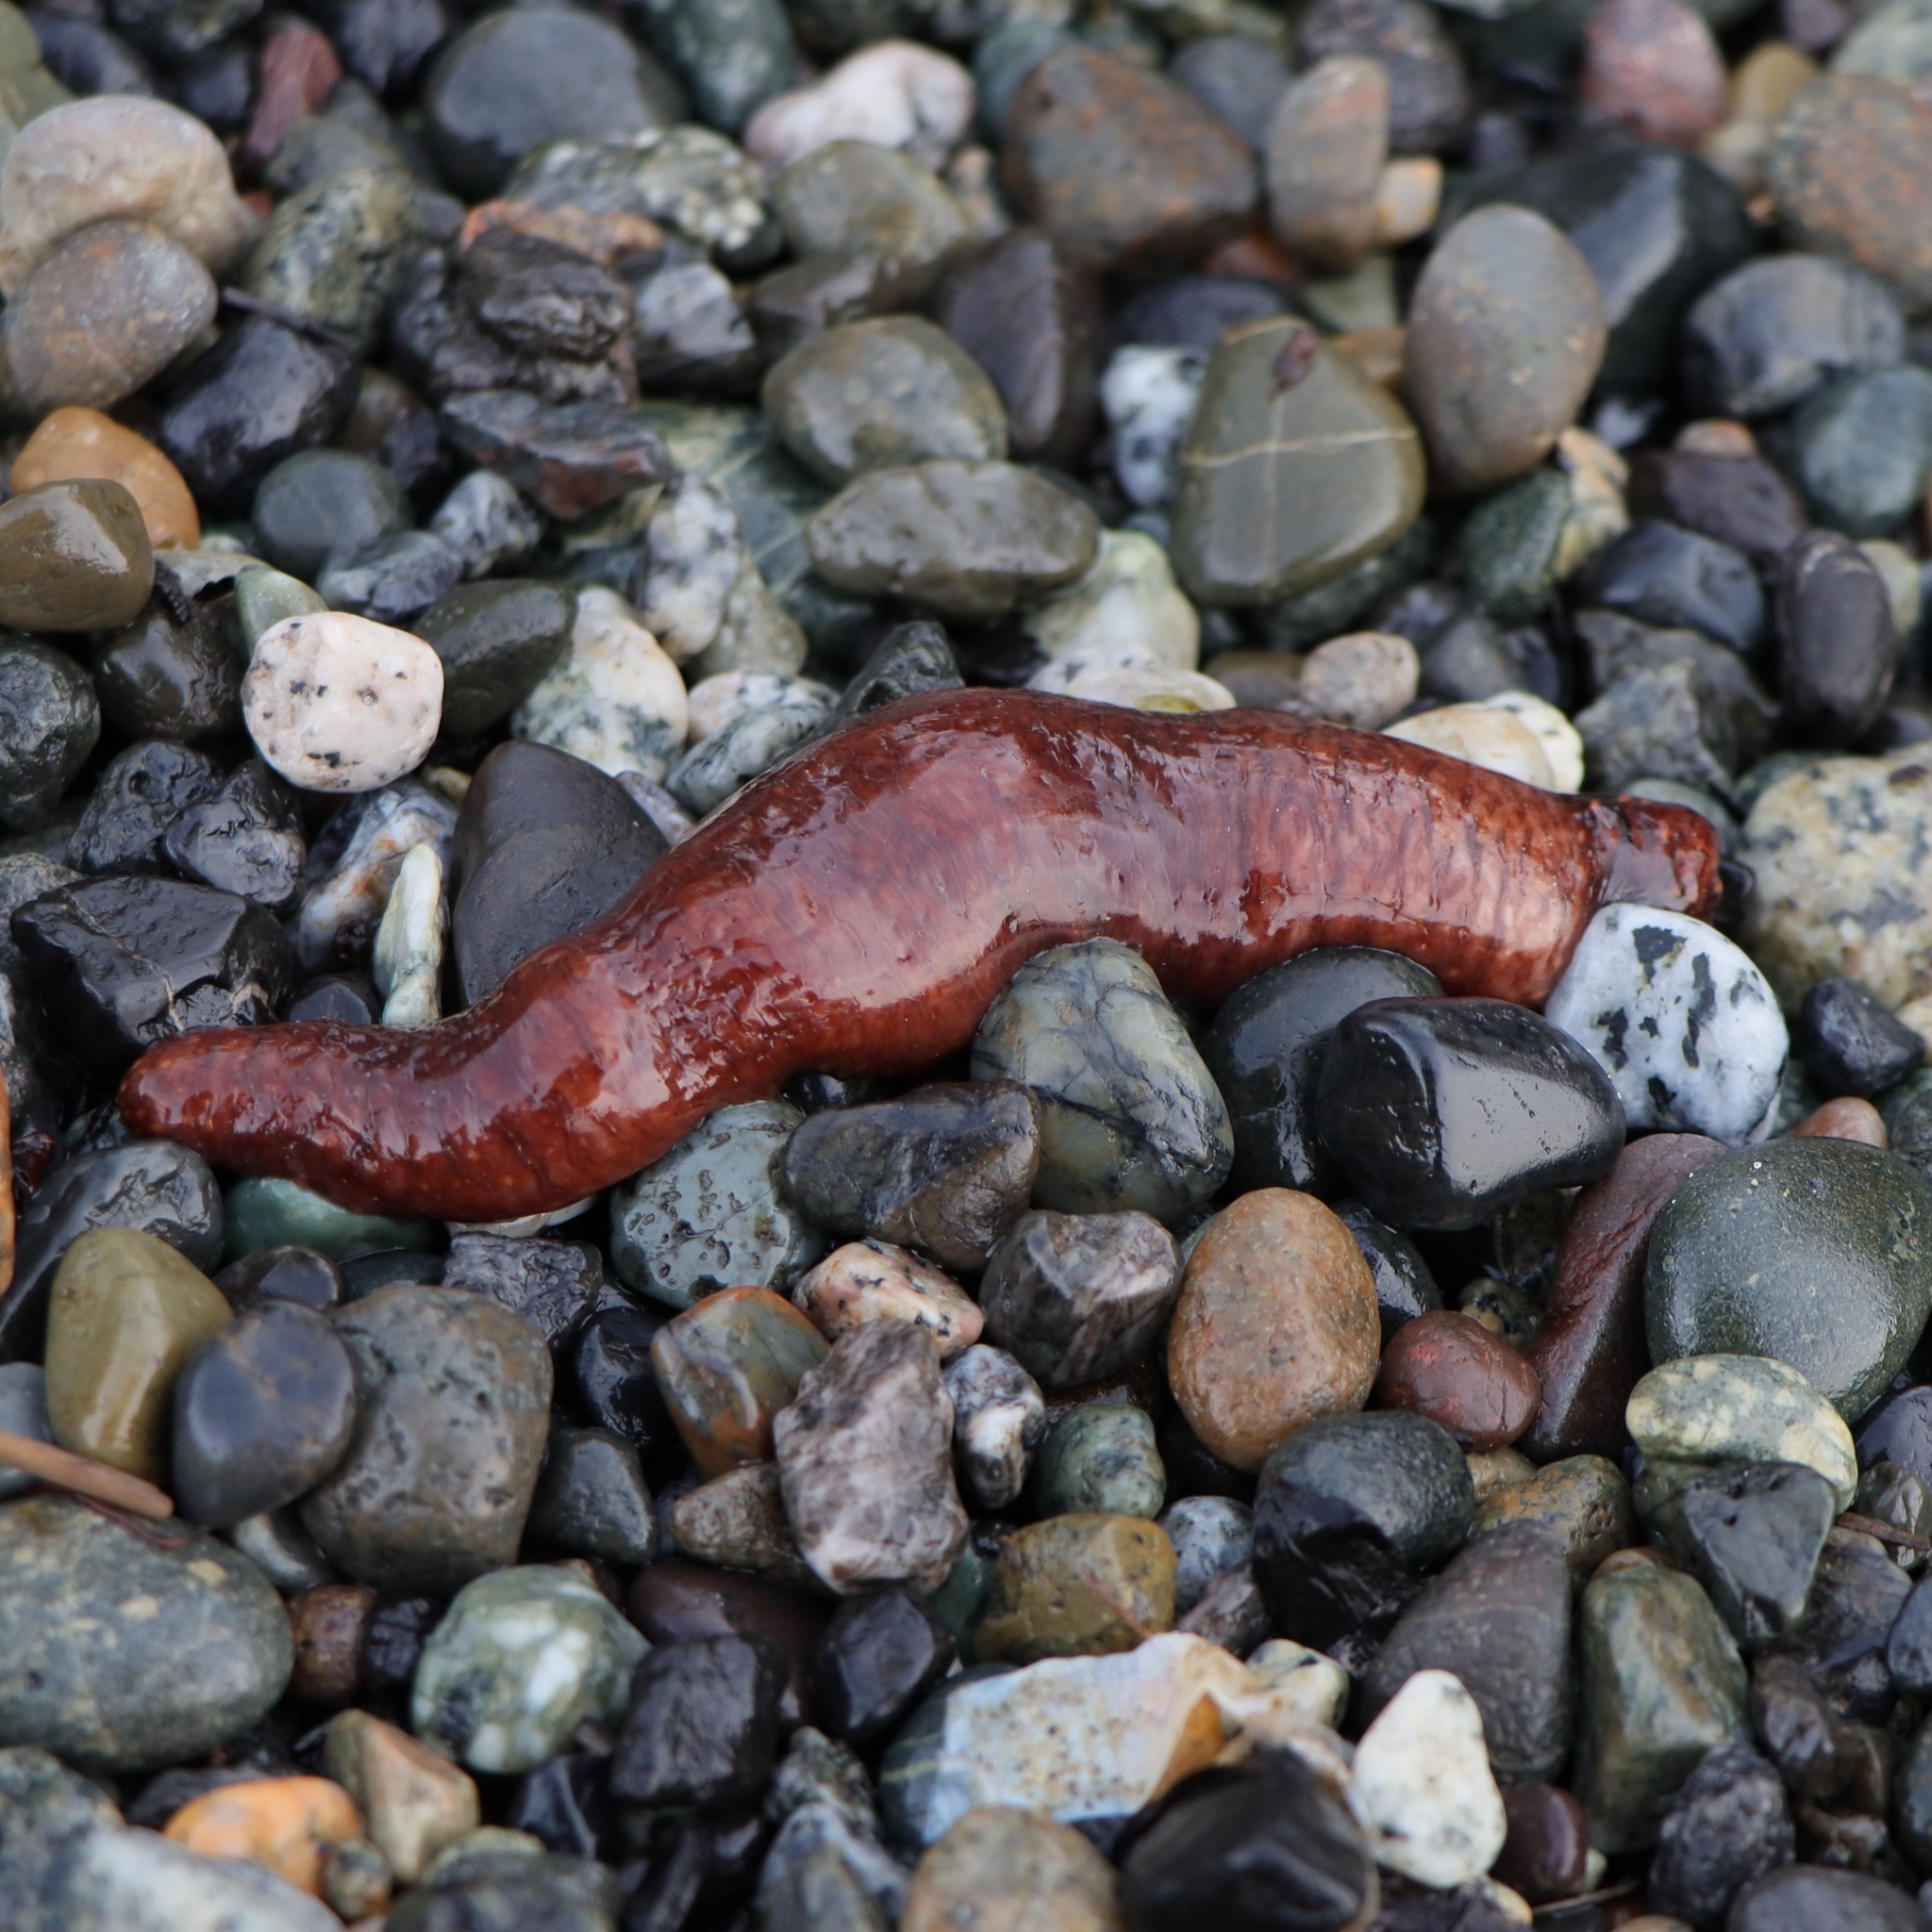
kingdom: Animalia
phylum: Echinodermata
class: Holothuroidea
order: Dendrochirotida
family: Cucumariidae
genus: Cucumaria
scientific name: Cucumaria miniata
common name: Orange sea cucumber
